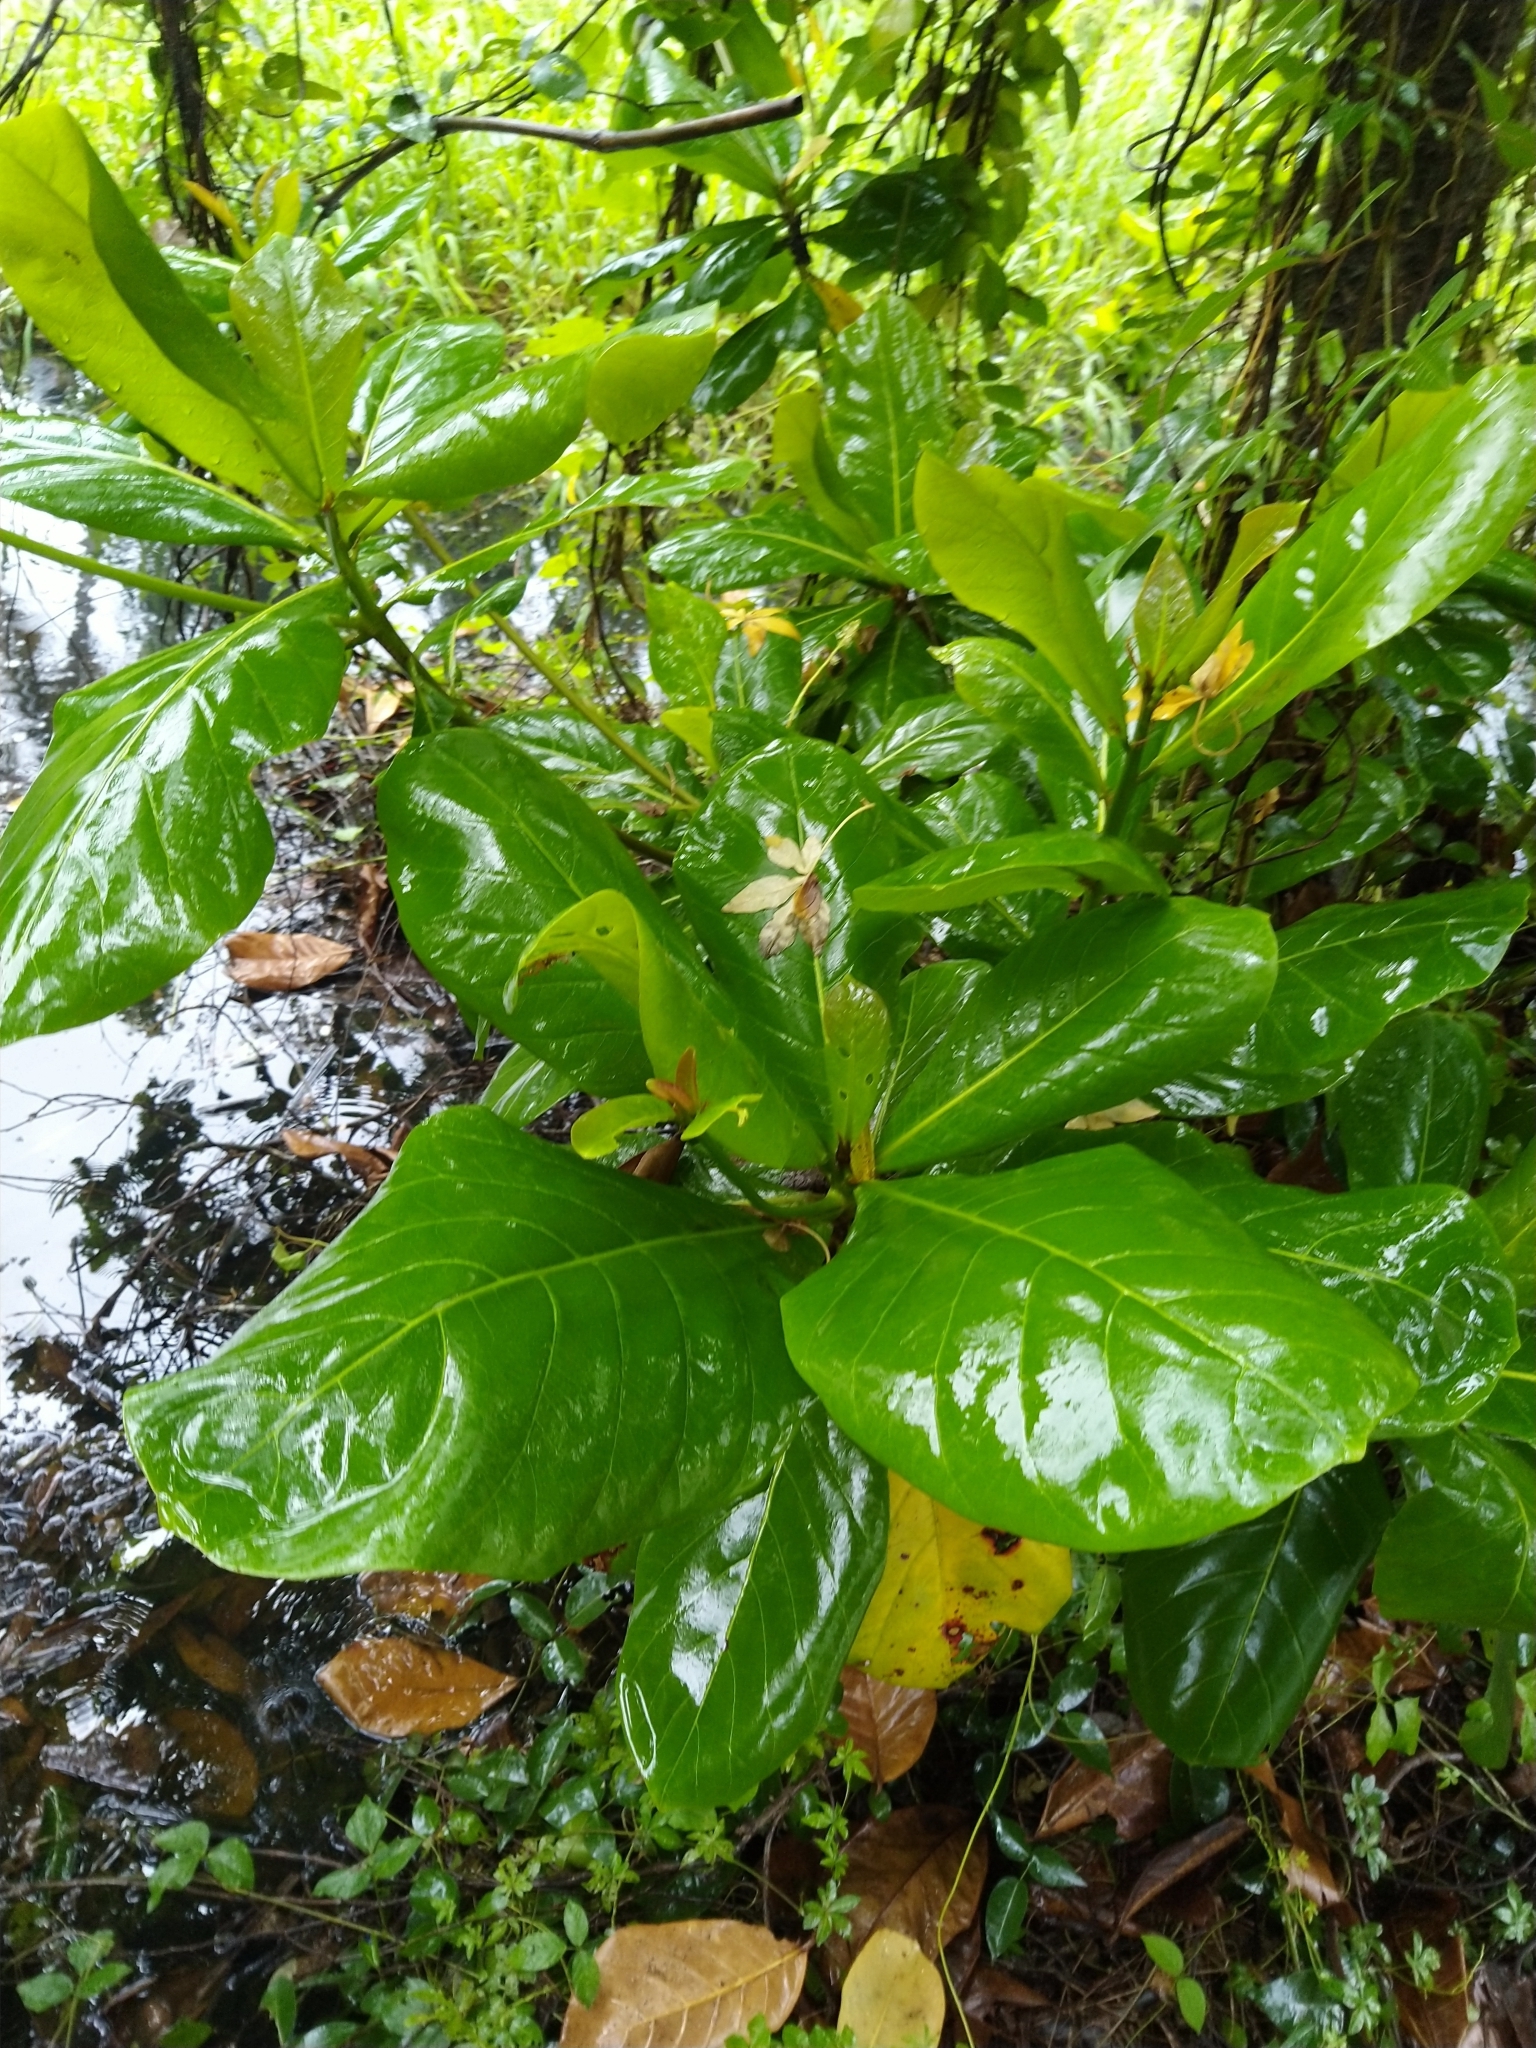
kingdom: Plantae
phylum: Tracheophyta
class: Magnoliopsida
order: Myrtales
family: Combretaceae
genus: Terminalia
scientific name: Terminalia catappa
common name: Tropical almond
